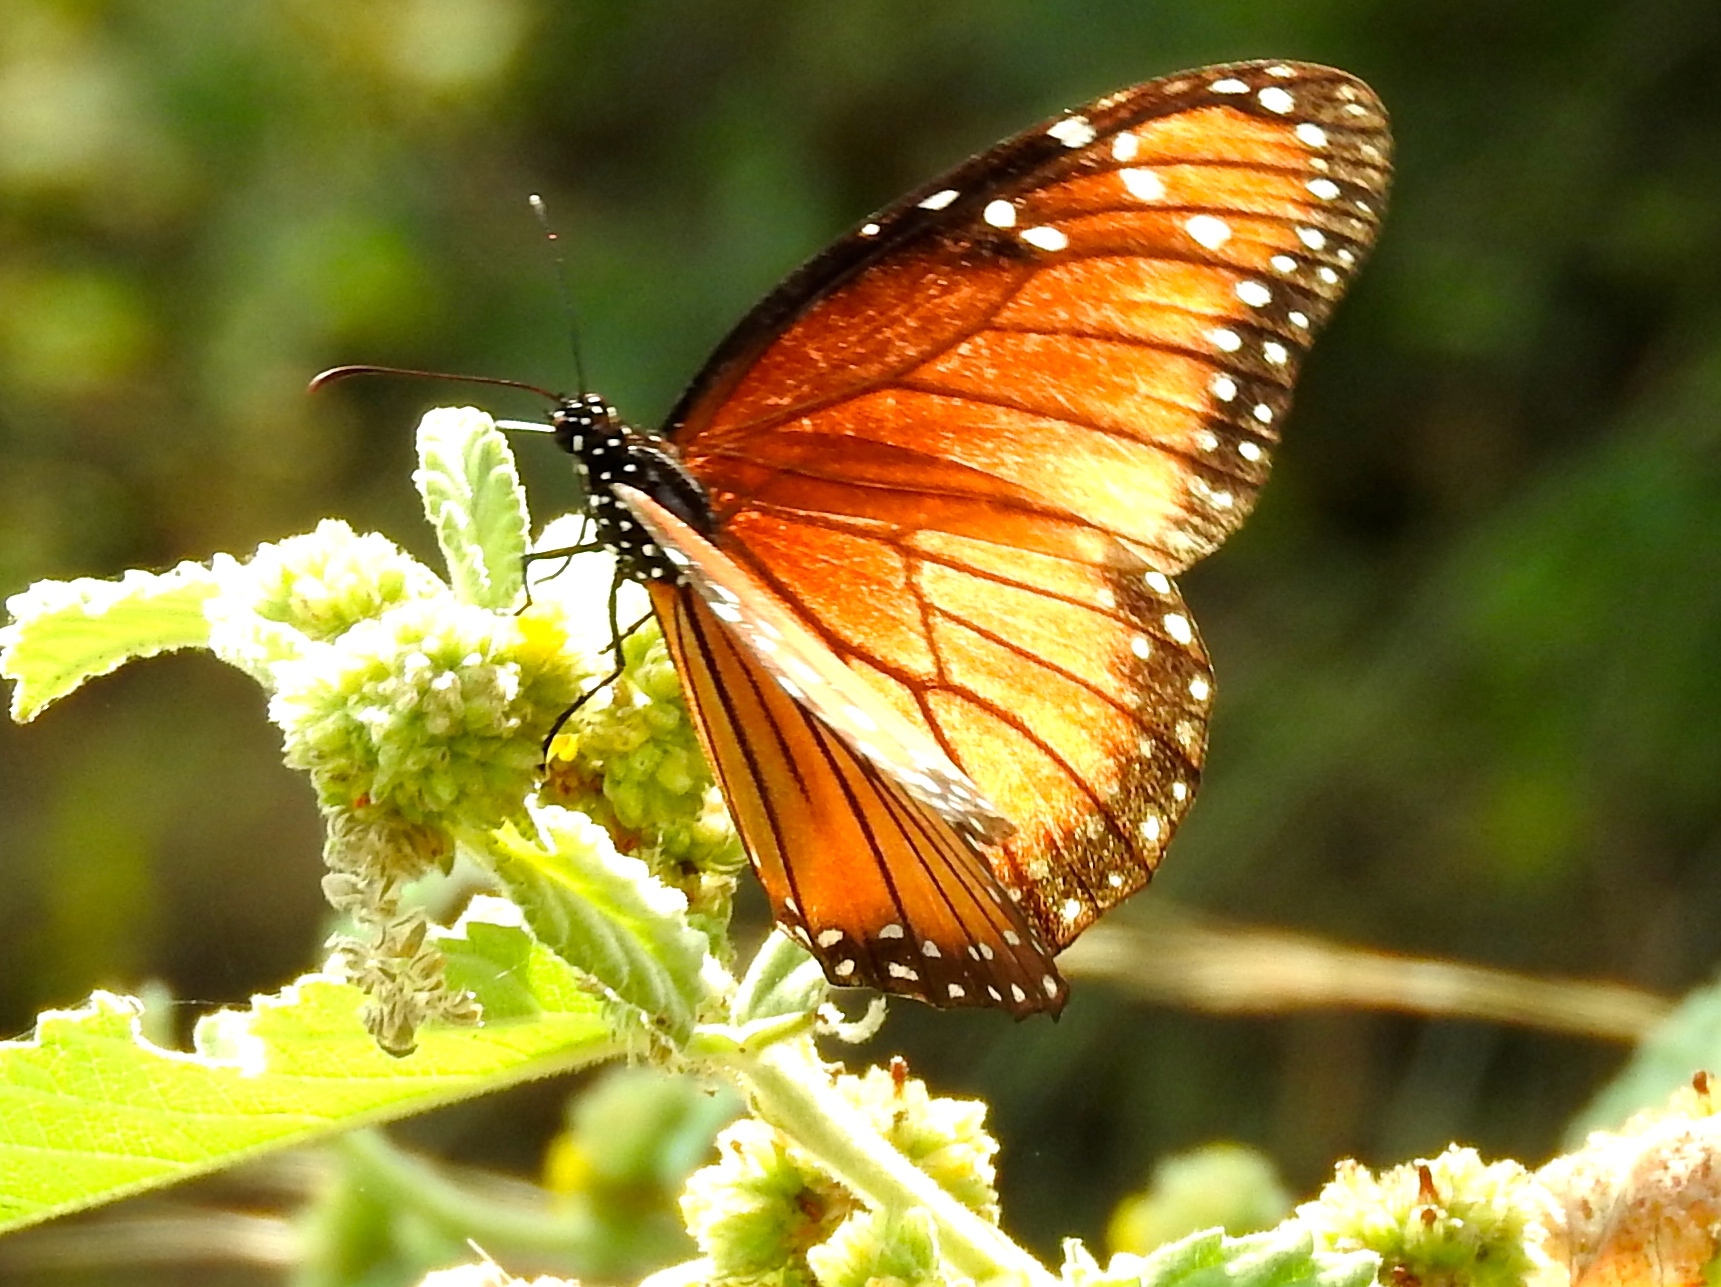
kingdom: Animalia
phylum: Arthropoda
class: Insecta
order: Lepidoptera
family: Nymphalidae
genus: Danaus
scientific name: Danaus eresimus
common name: Soldier
